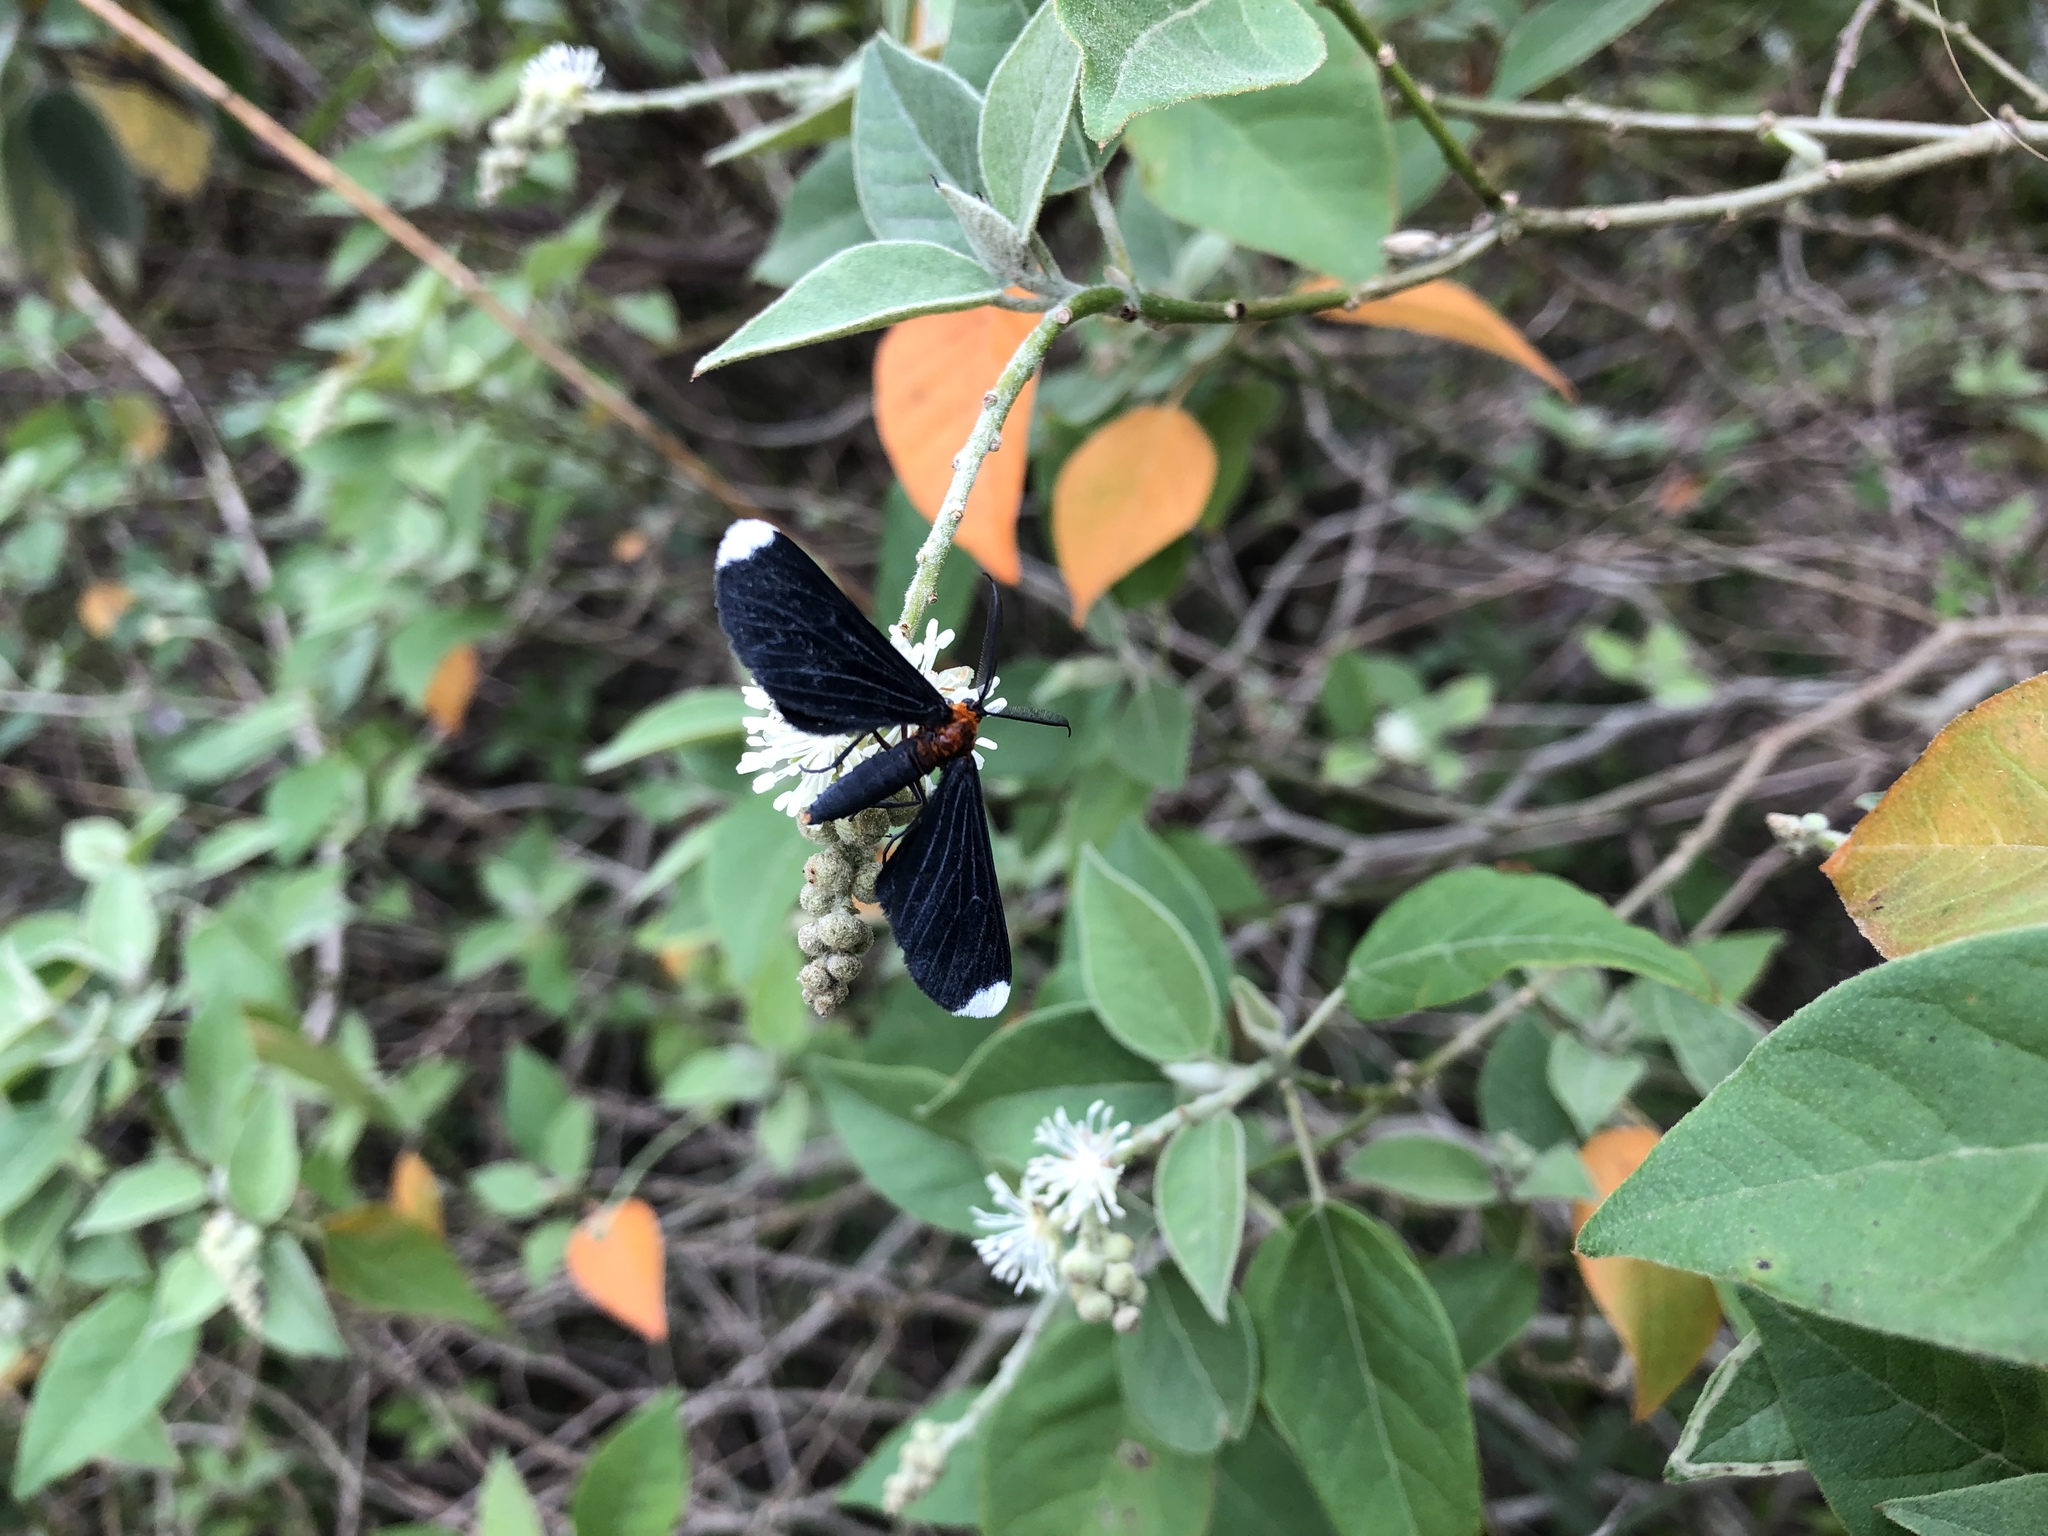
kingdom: Animalia
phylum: Arthropoda
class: Insecta
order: Lepidoptera
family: Geometridae
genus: Melanchroia
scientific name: Melanchroia chephise
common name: White-tipped black
